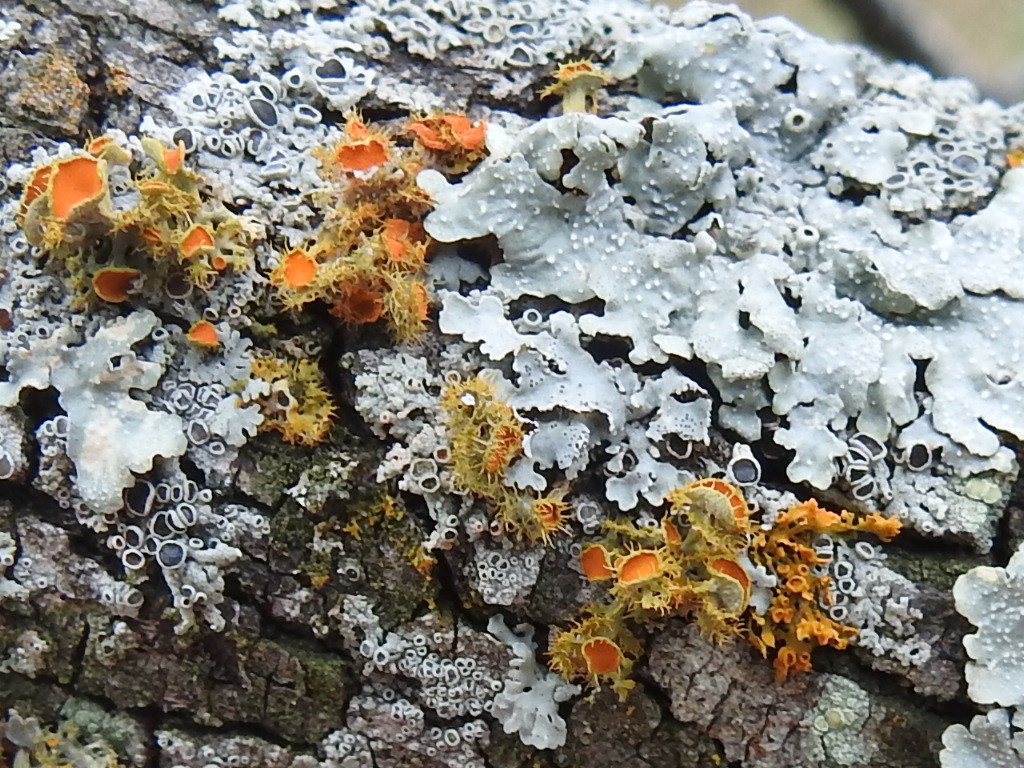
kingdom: Fungi
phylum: Ascomycota
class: Lecanoromycetes
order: Teloschistales
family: Teloschistaceae
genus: Niorma
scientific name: Niorma chrysophthalma
